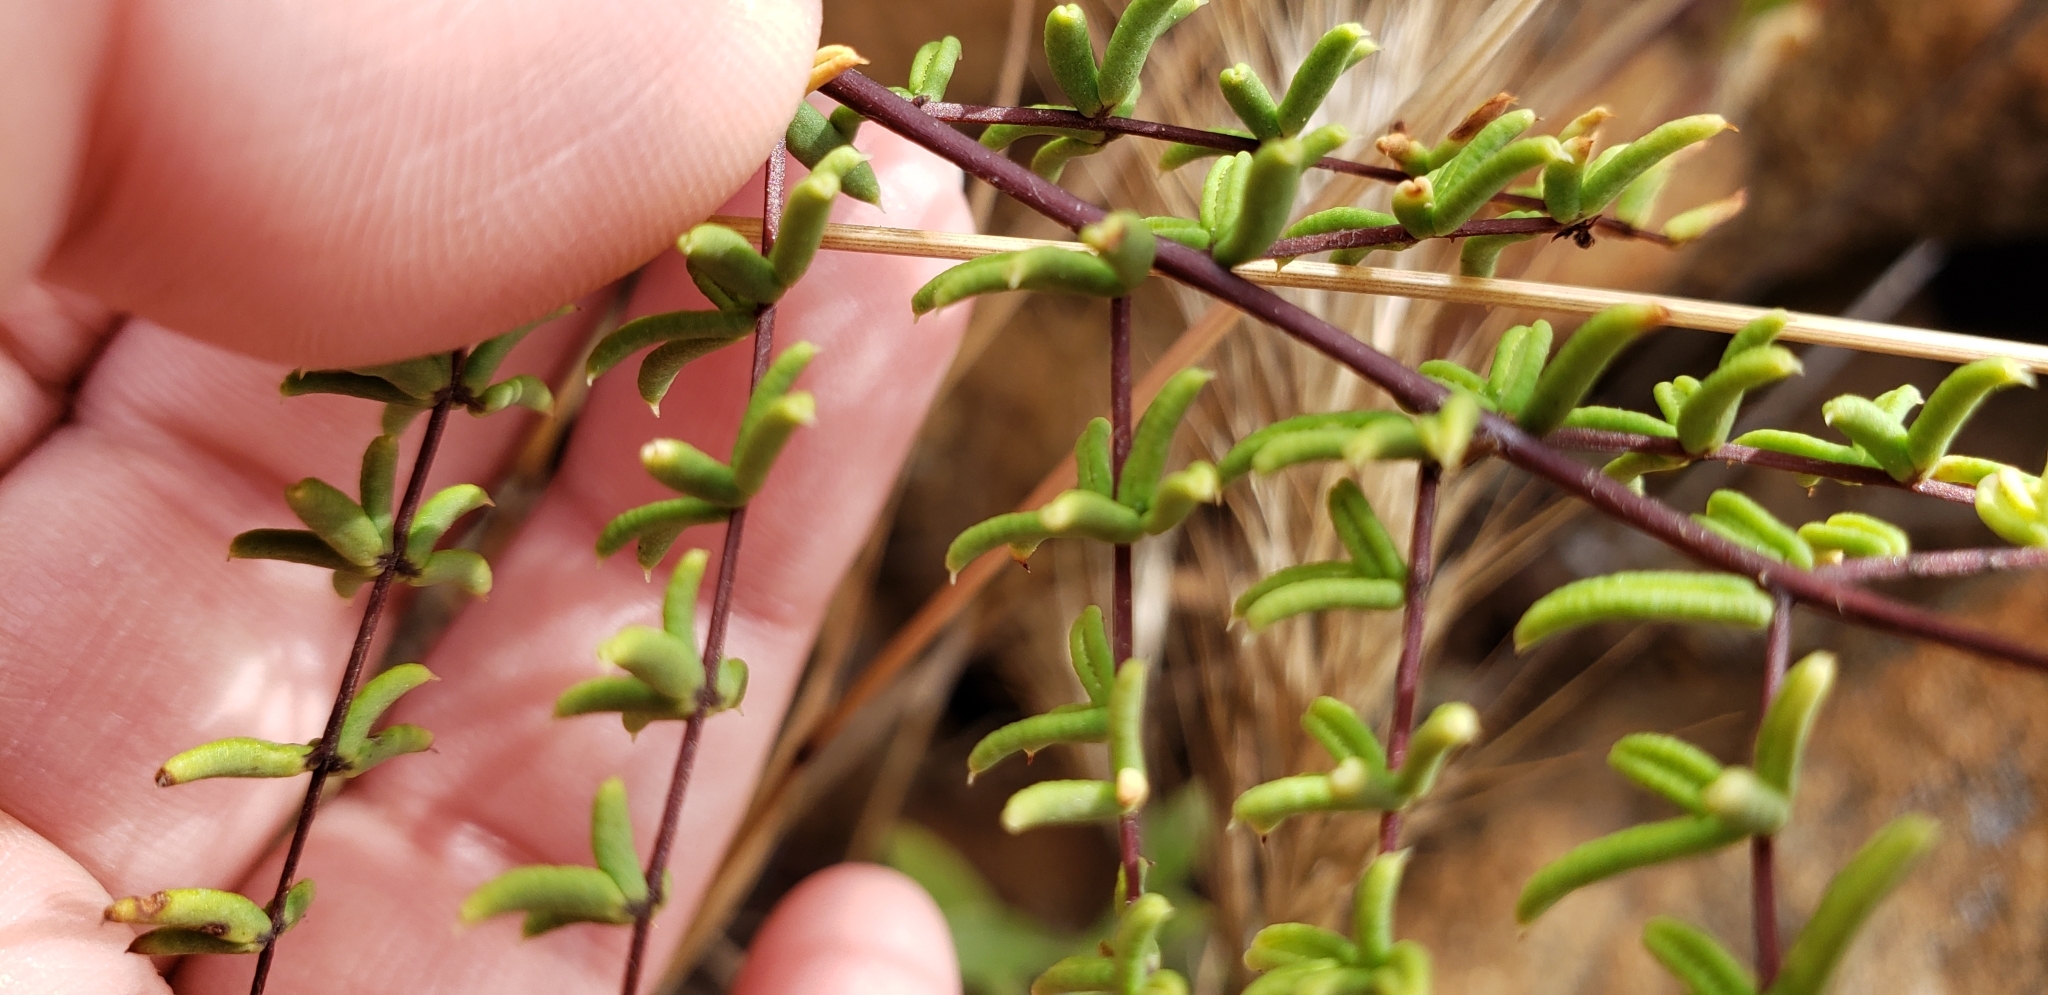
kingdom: Plantae
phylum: Tracheophyta
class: Polypodiopsida
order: Polypodiales
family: Pteridaceae
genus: Pellaea
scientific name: Pellaea mucronata
